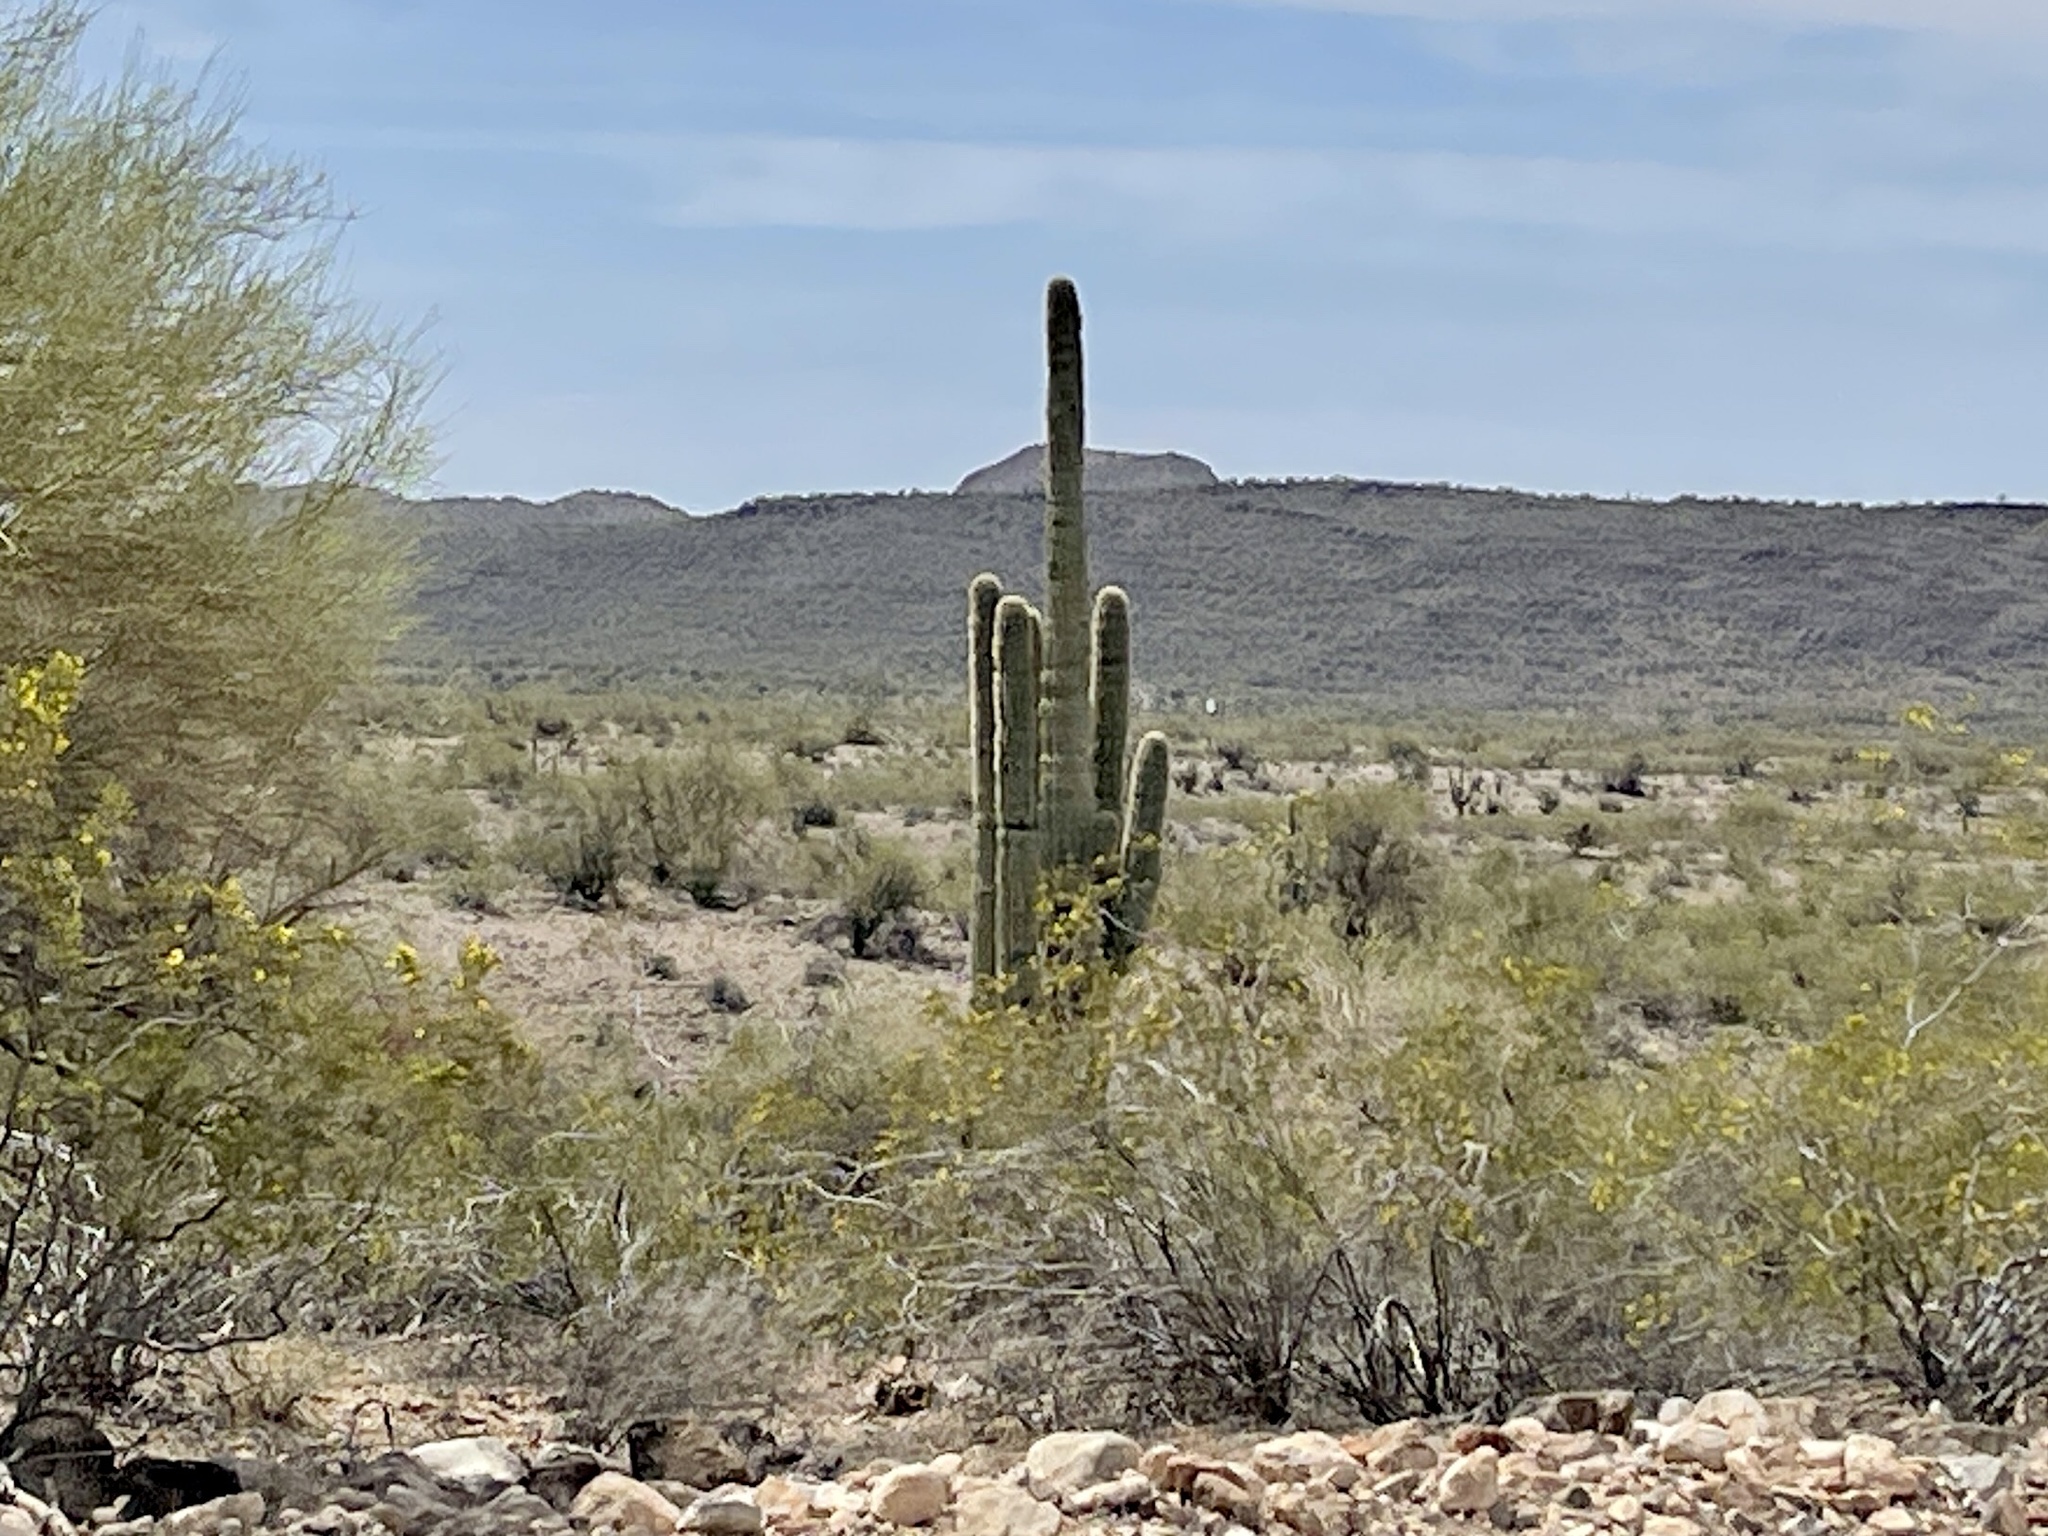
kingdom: Plantae
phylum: Tracheophyta
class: Magnoliopsida
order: Caryophyllales
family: Cactaceae
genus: Carnegiea
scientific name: Carnegiea gigantea
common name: Saguaro
